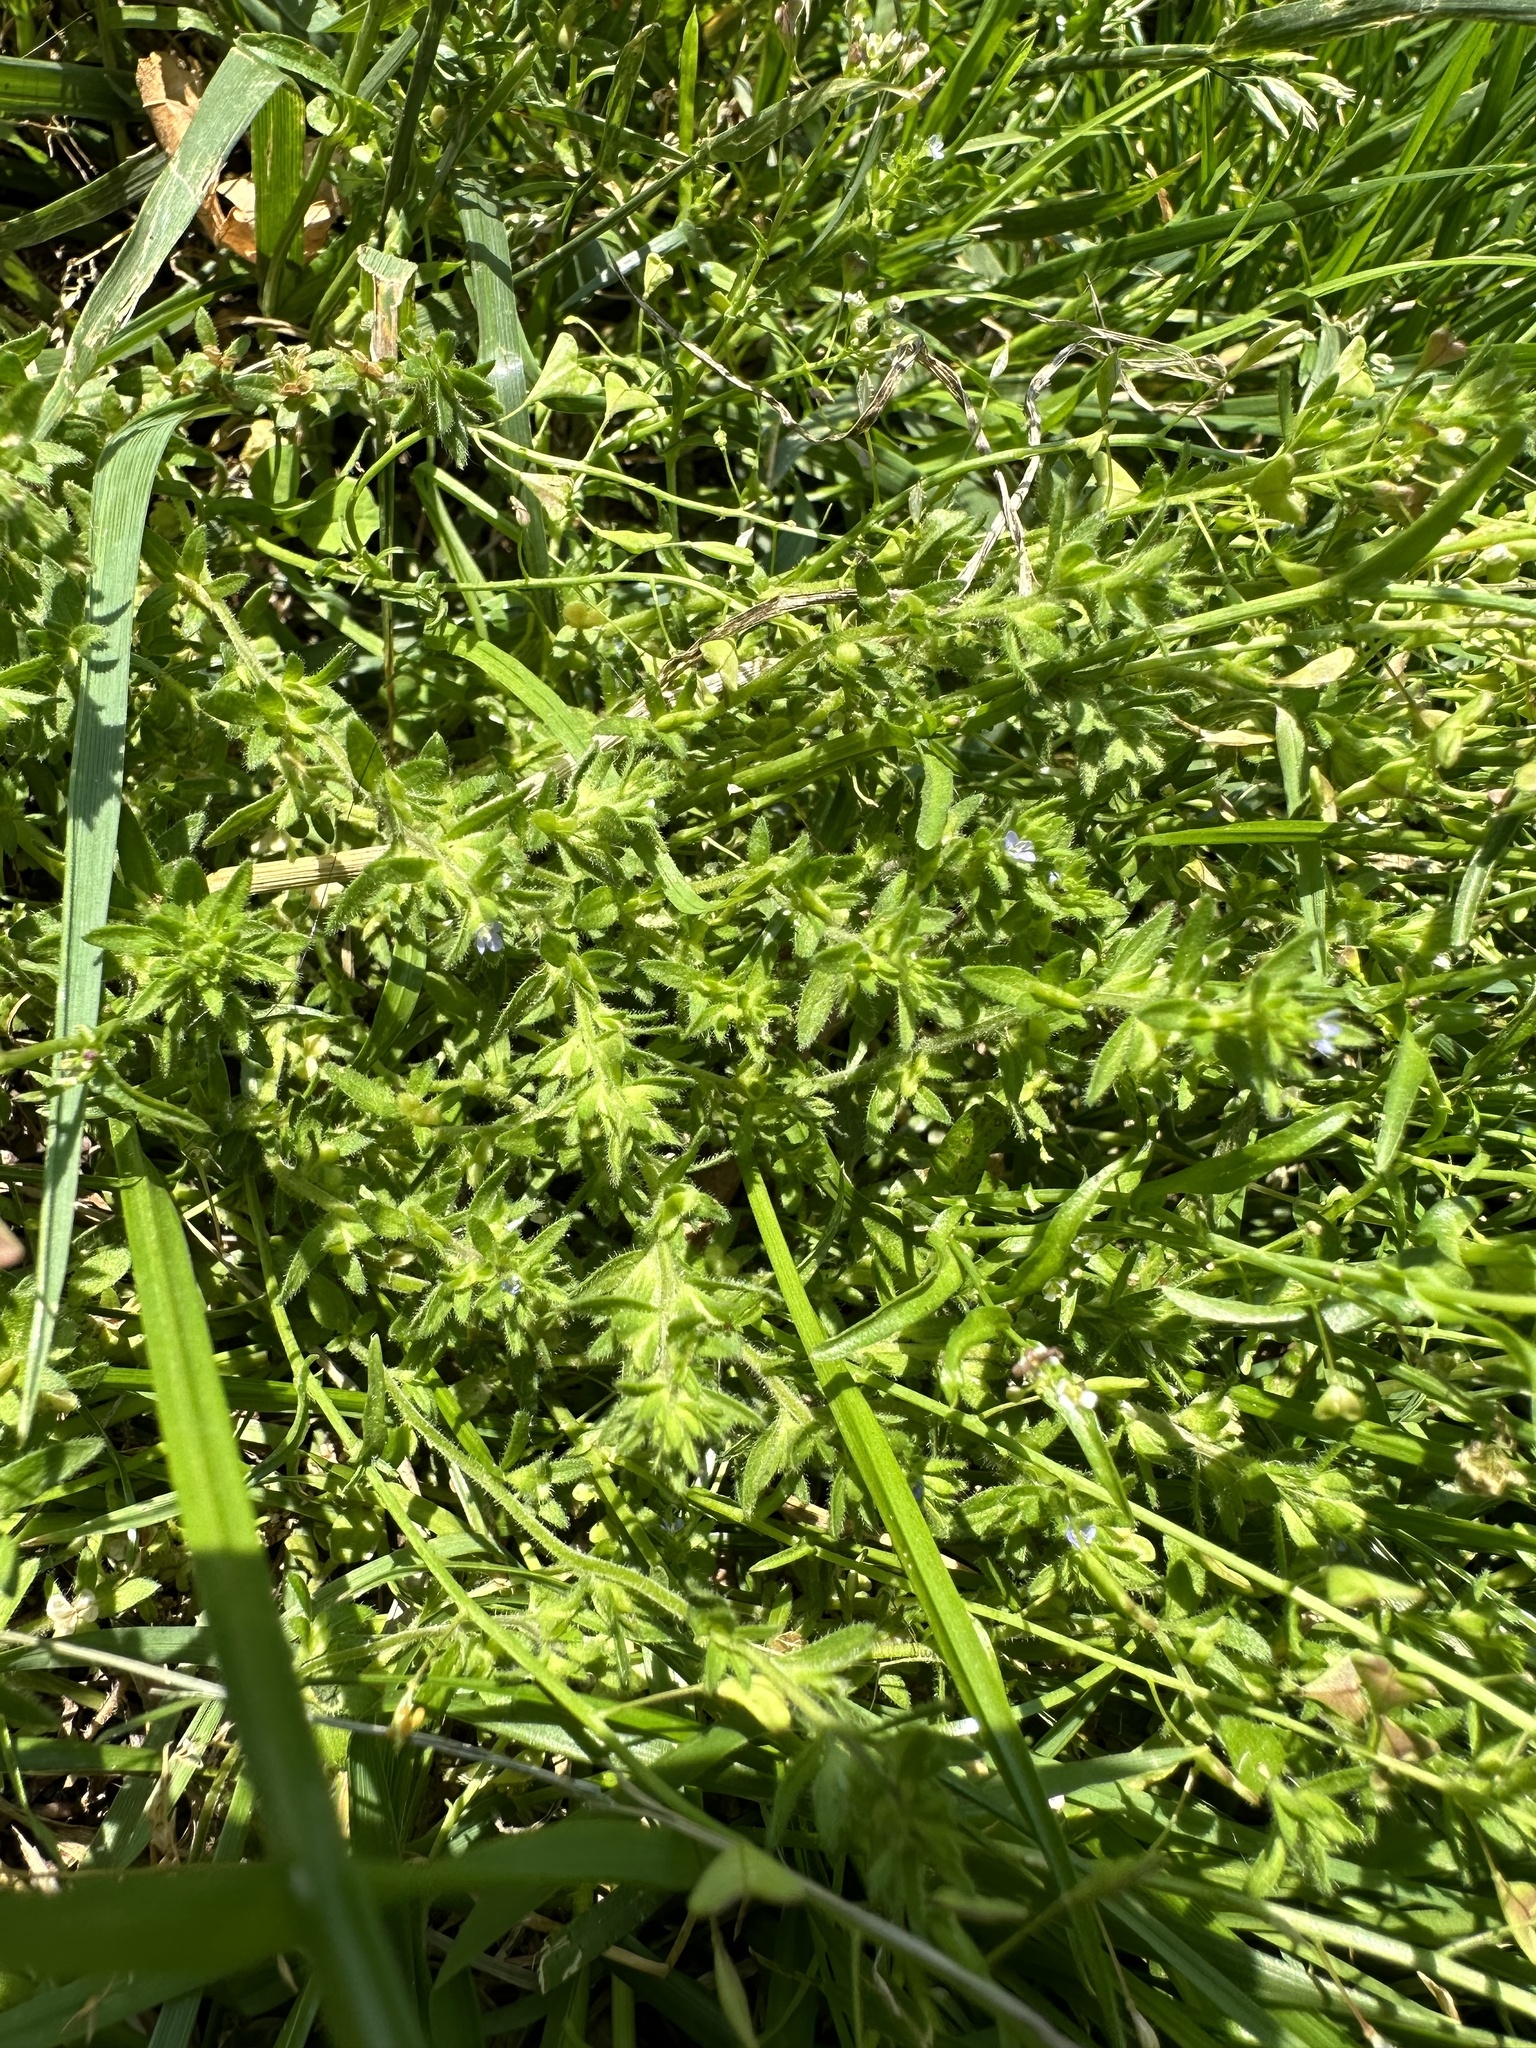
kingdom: Plantae
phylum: Tracheophyta
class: Magnoliopsida
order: Lamiales
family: Plantaginaceae
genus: Veronica
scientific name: Veronica arvensis
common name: Corn speedwell
